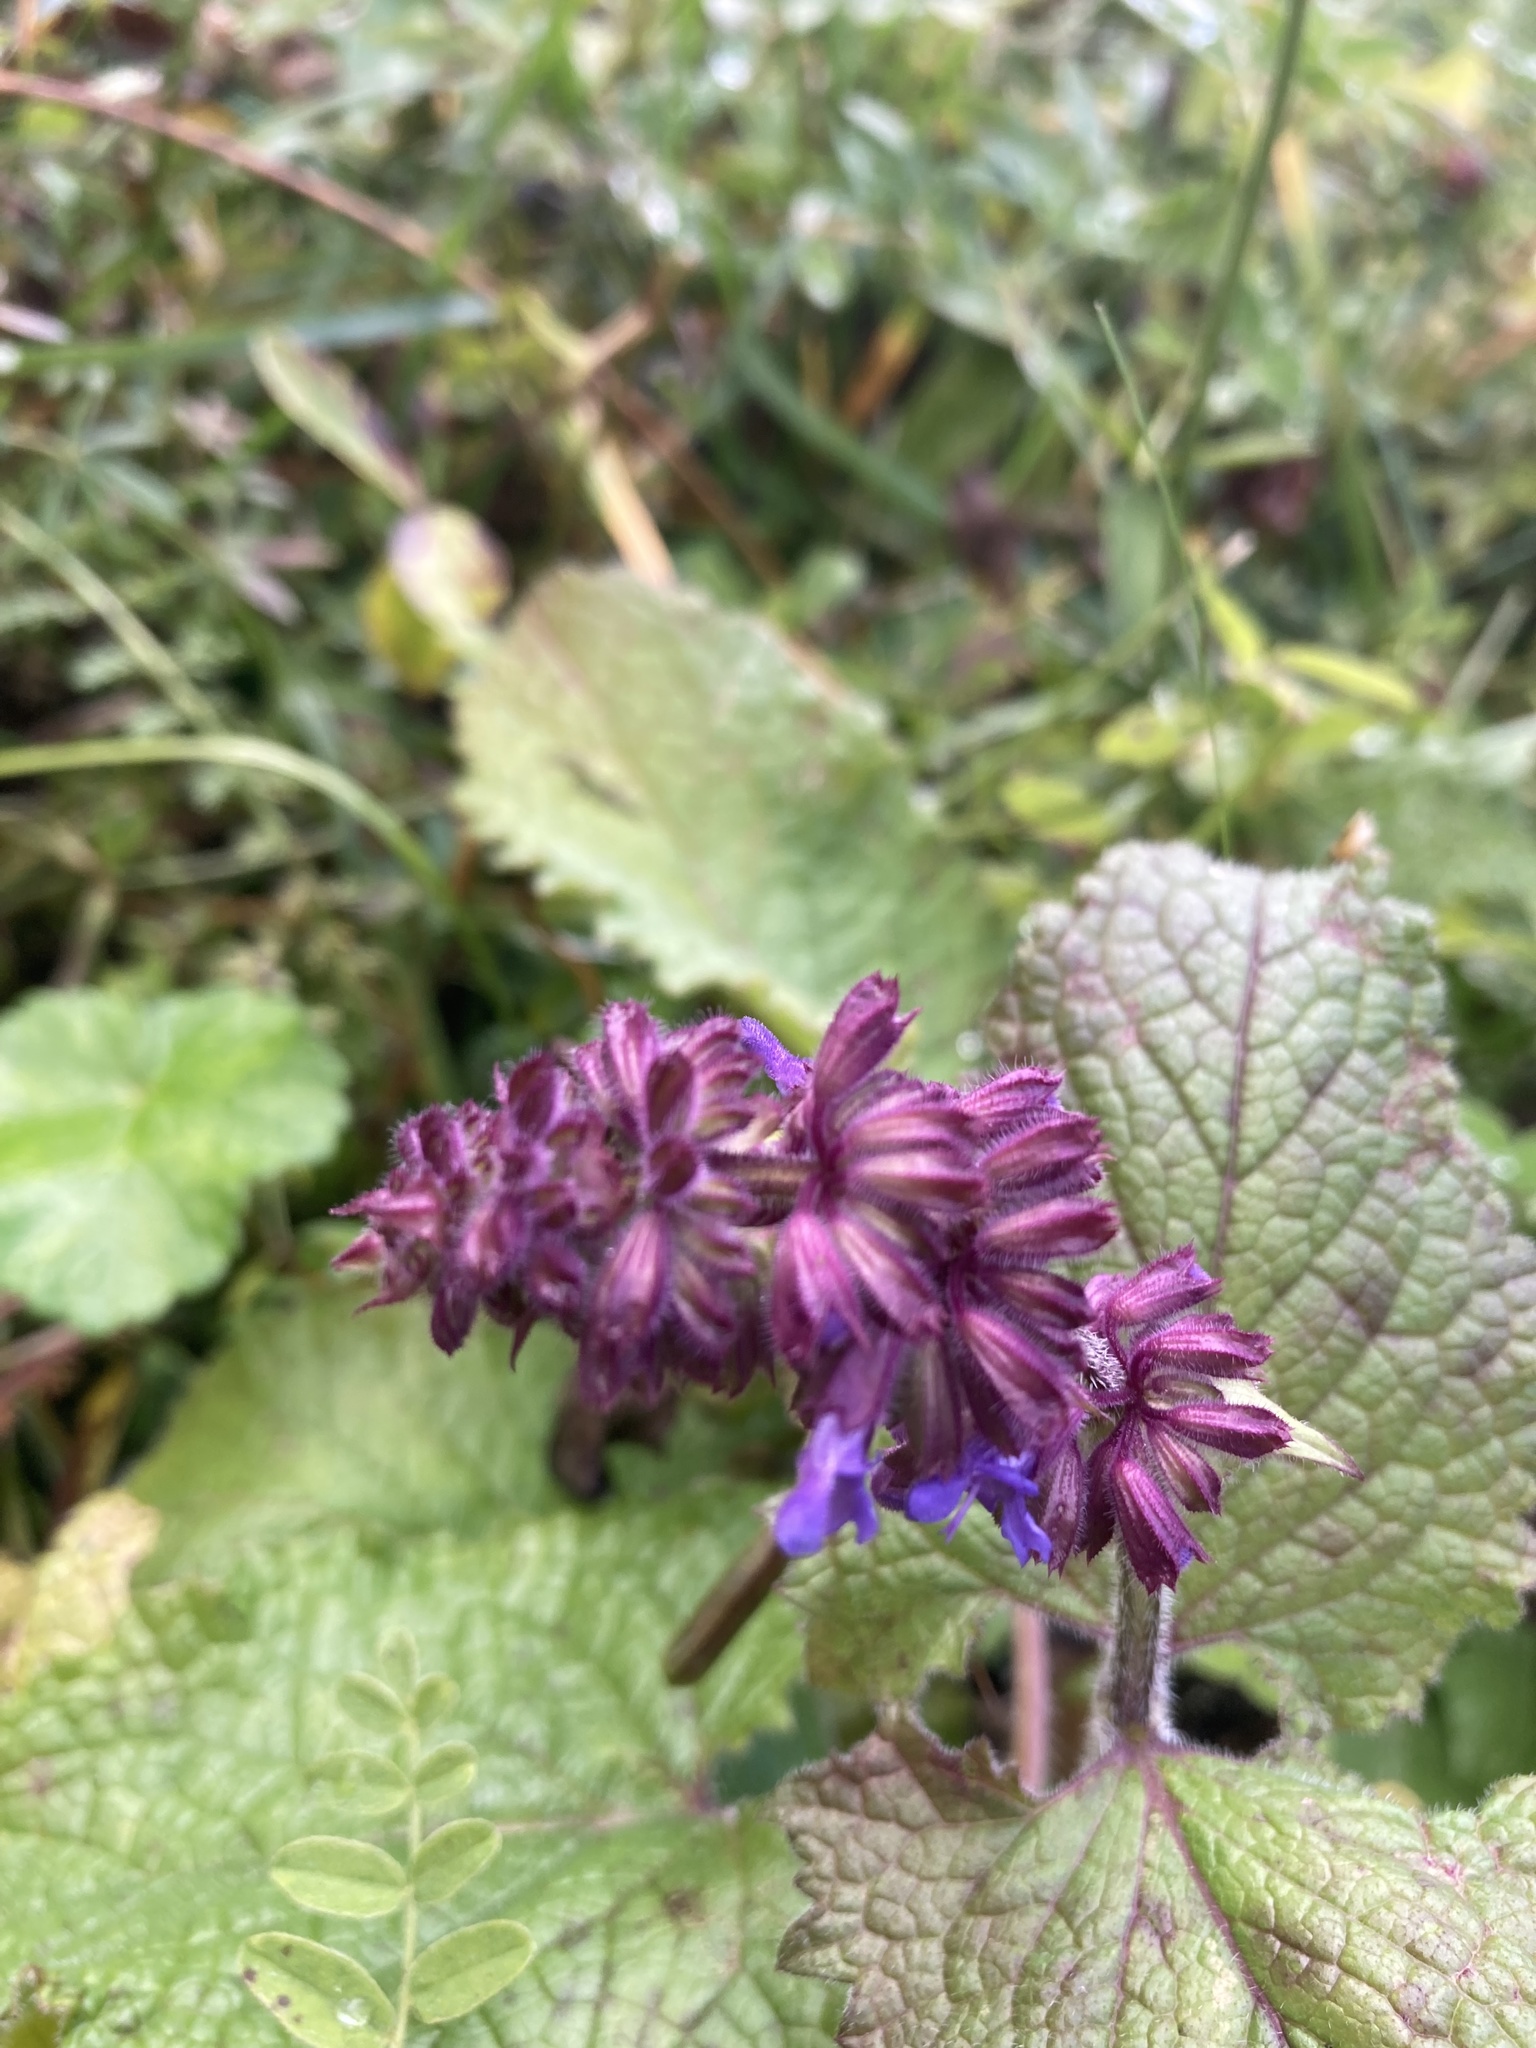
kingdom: Plantae
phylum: Tracheophyta
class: Magnoliopsida
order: Lamiales
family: Lamiaceae
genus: Salvia
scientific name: Salvia verticillata
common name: Whorled clary
